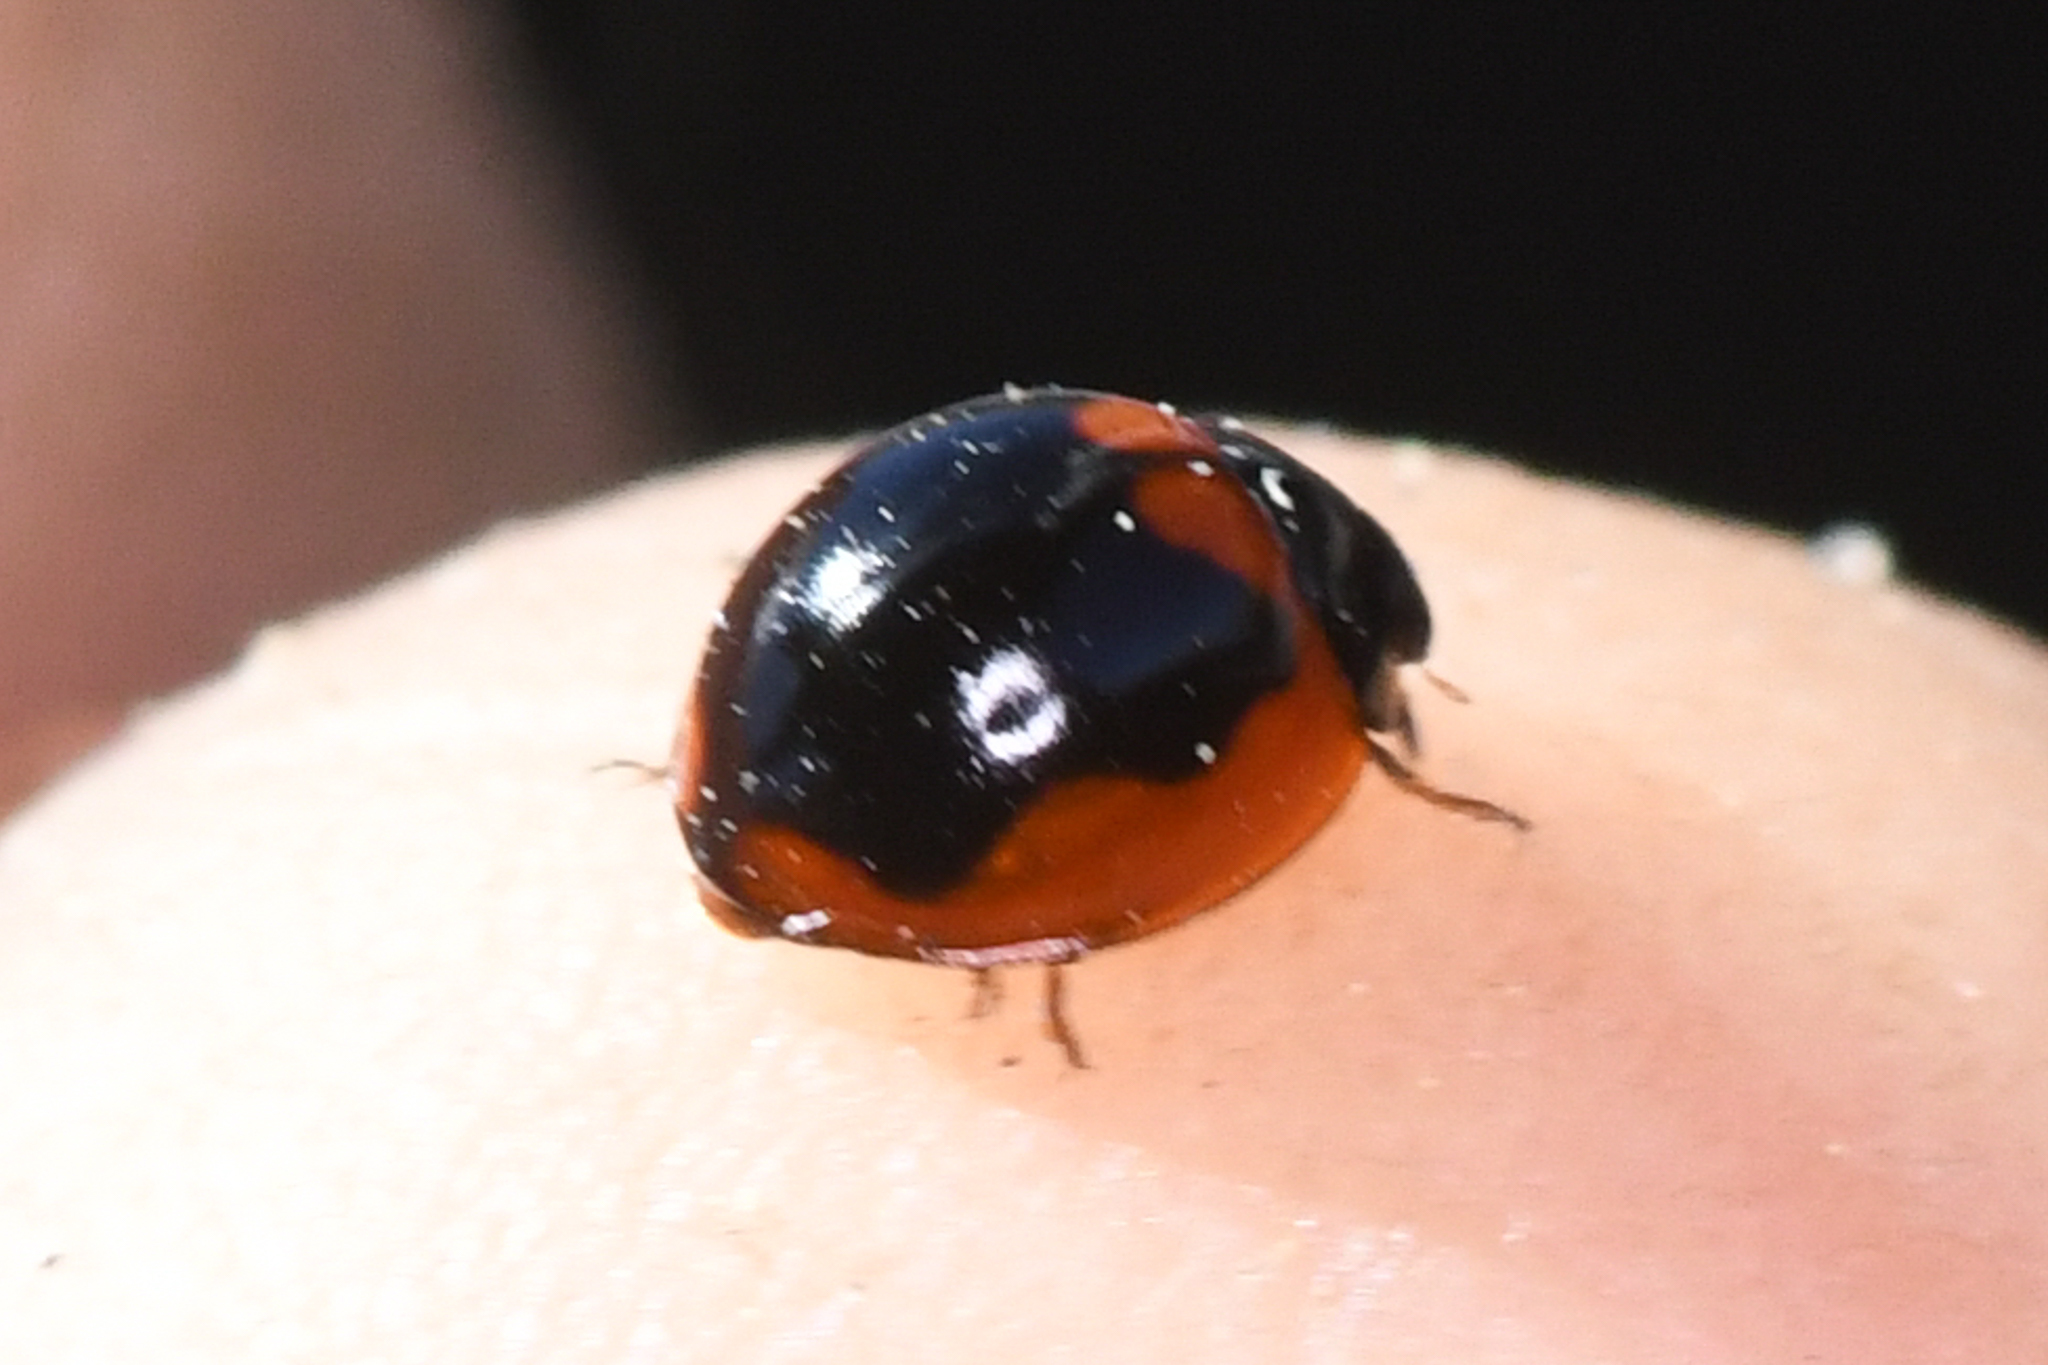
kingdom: Animalia
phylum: Arthropoda
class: Insecta
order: Coleoptera
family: Coccinellidae
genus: Exochomus
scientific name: Exochomus subrotundus
